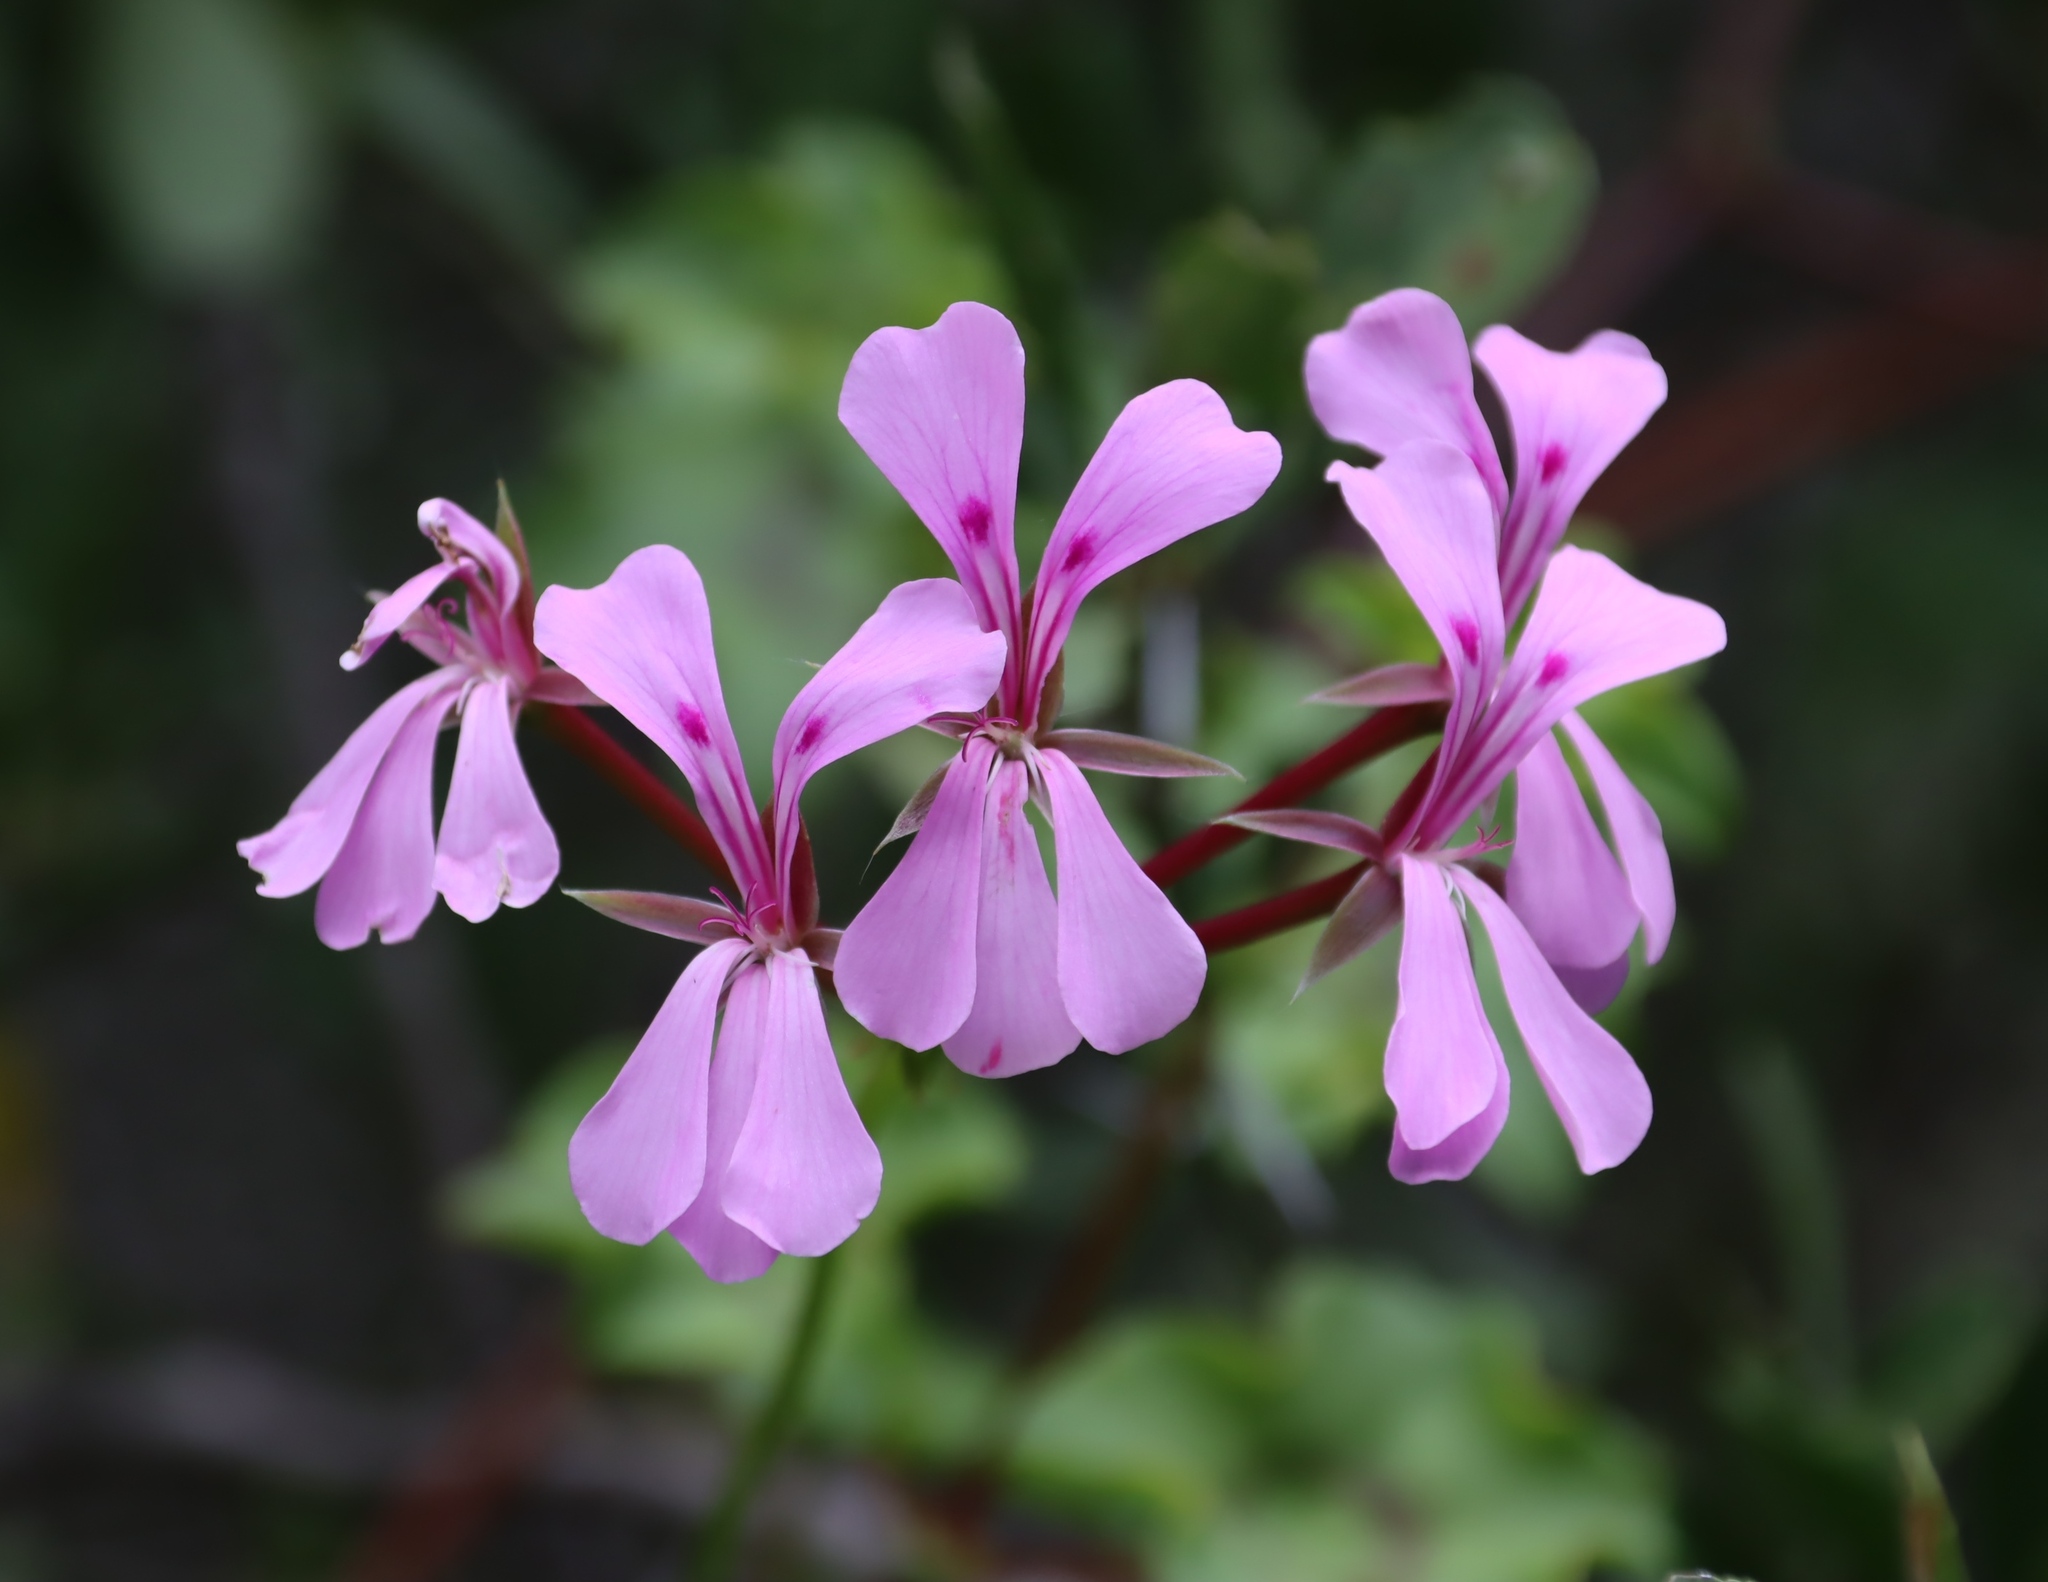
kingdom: Plantae
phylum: Tracheophyta
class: Magnoliopsida
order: Geraniales
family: Geraniaceae
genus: Pelargonium
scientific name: Pelargonium peltatum
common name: Ivyleaf geranium
